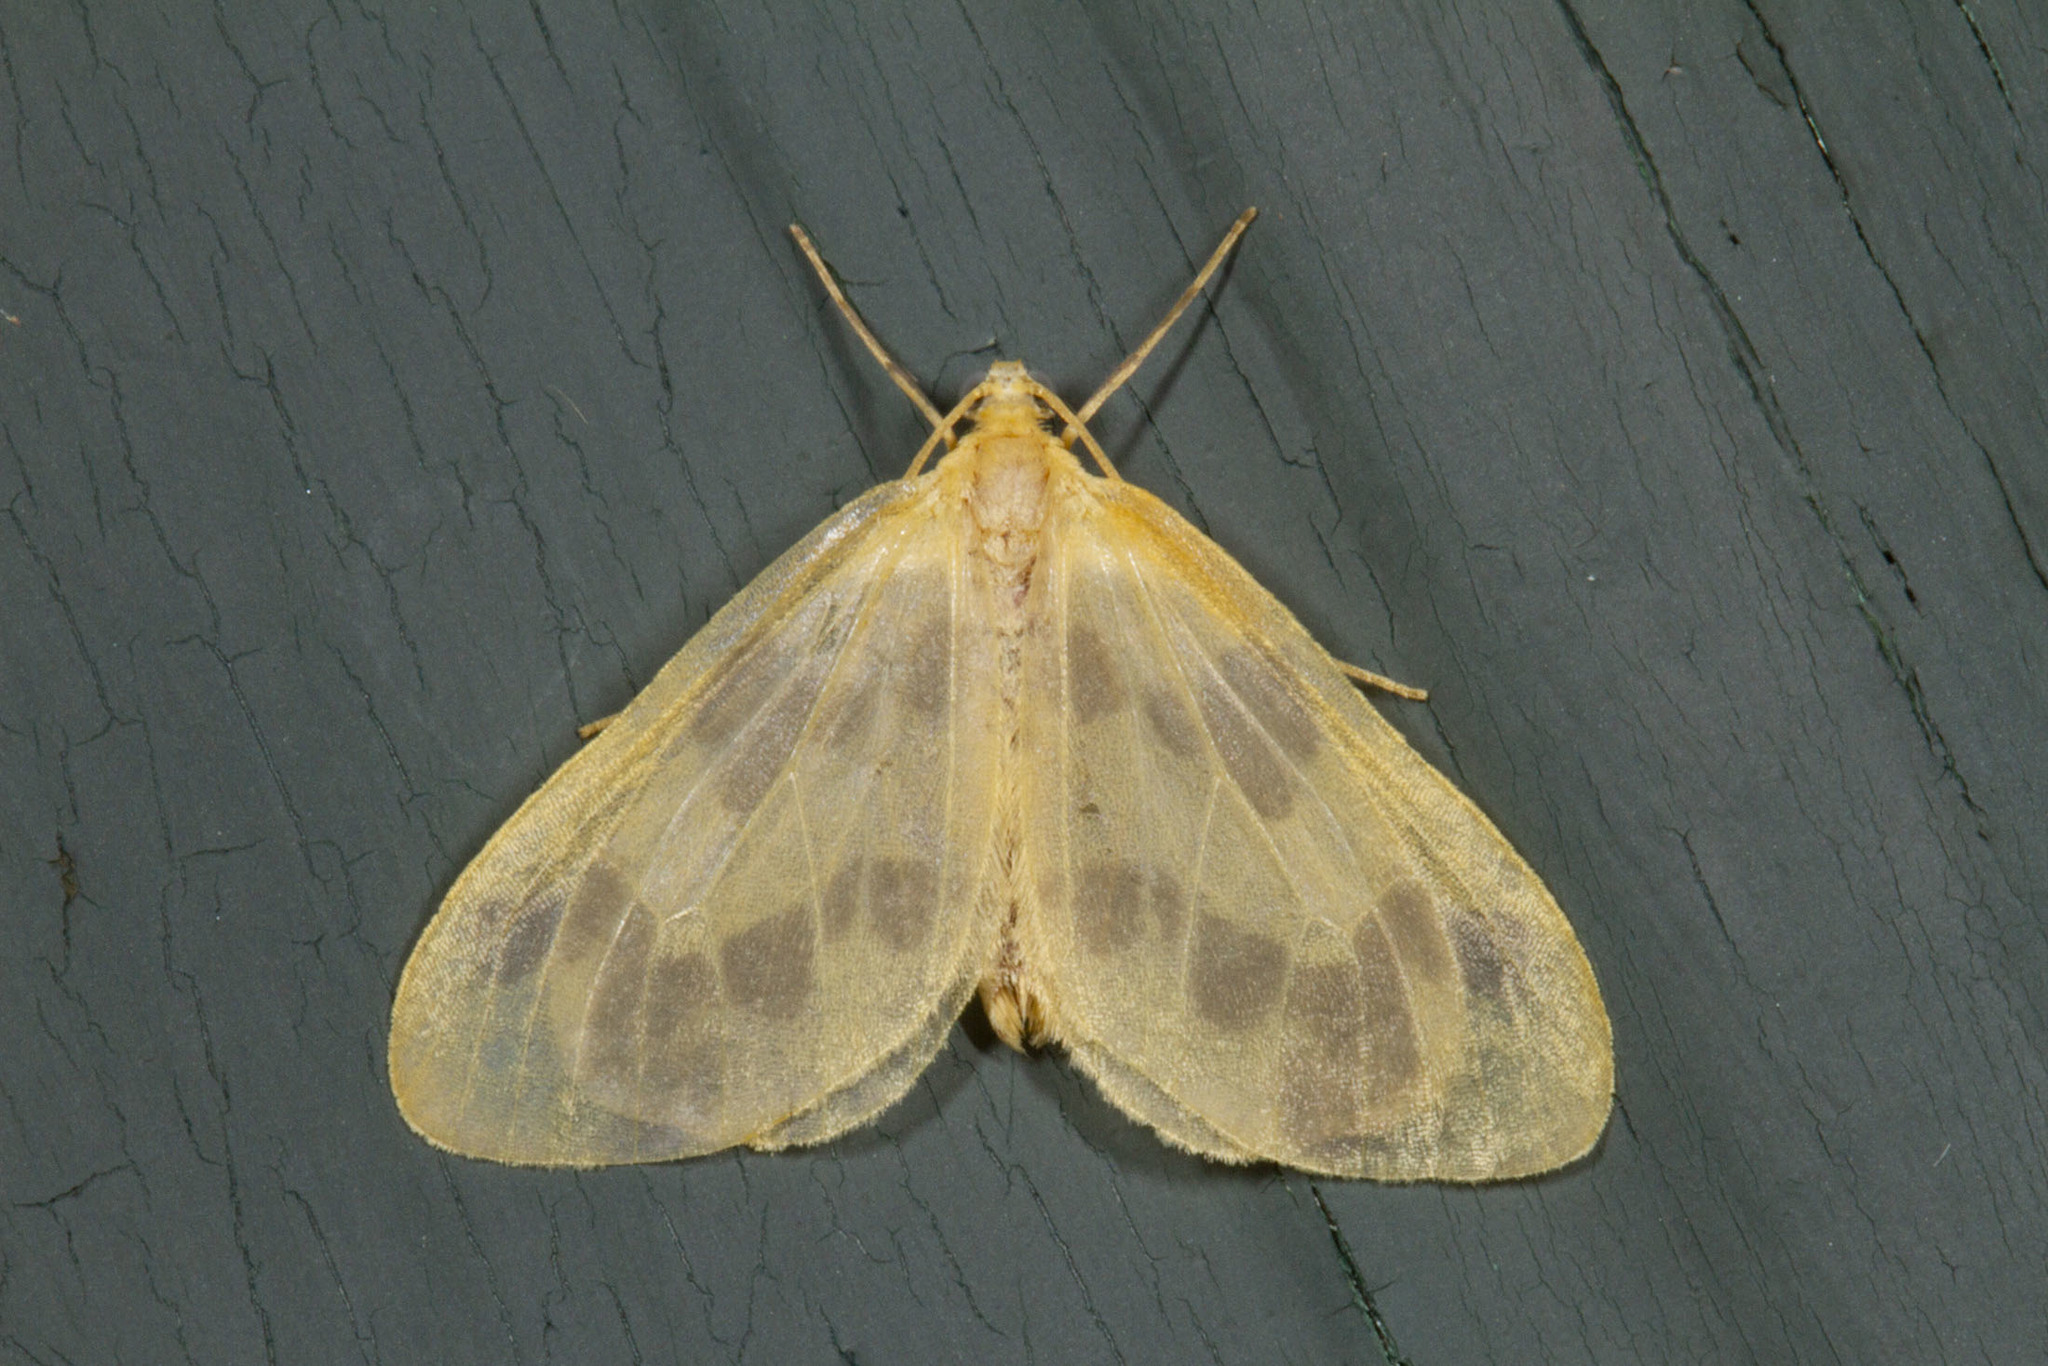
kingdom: Animalia
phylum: Arthropoda
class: Insecta
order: Lepidoptera
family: Geometridae
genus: Eubaphe
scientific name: Eubaphe mendica
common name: Beggar
